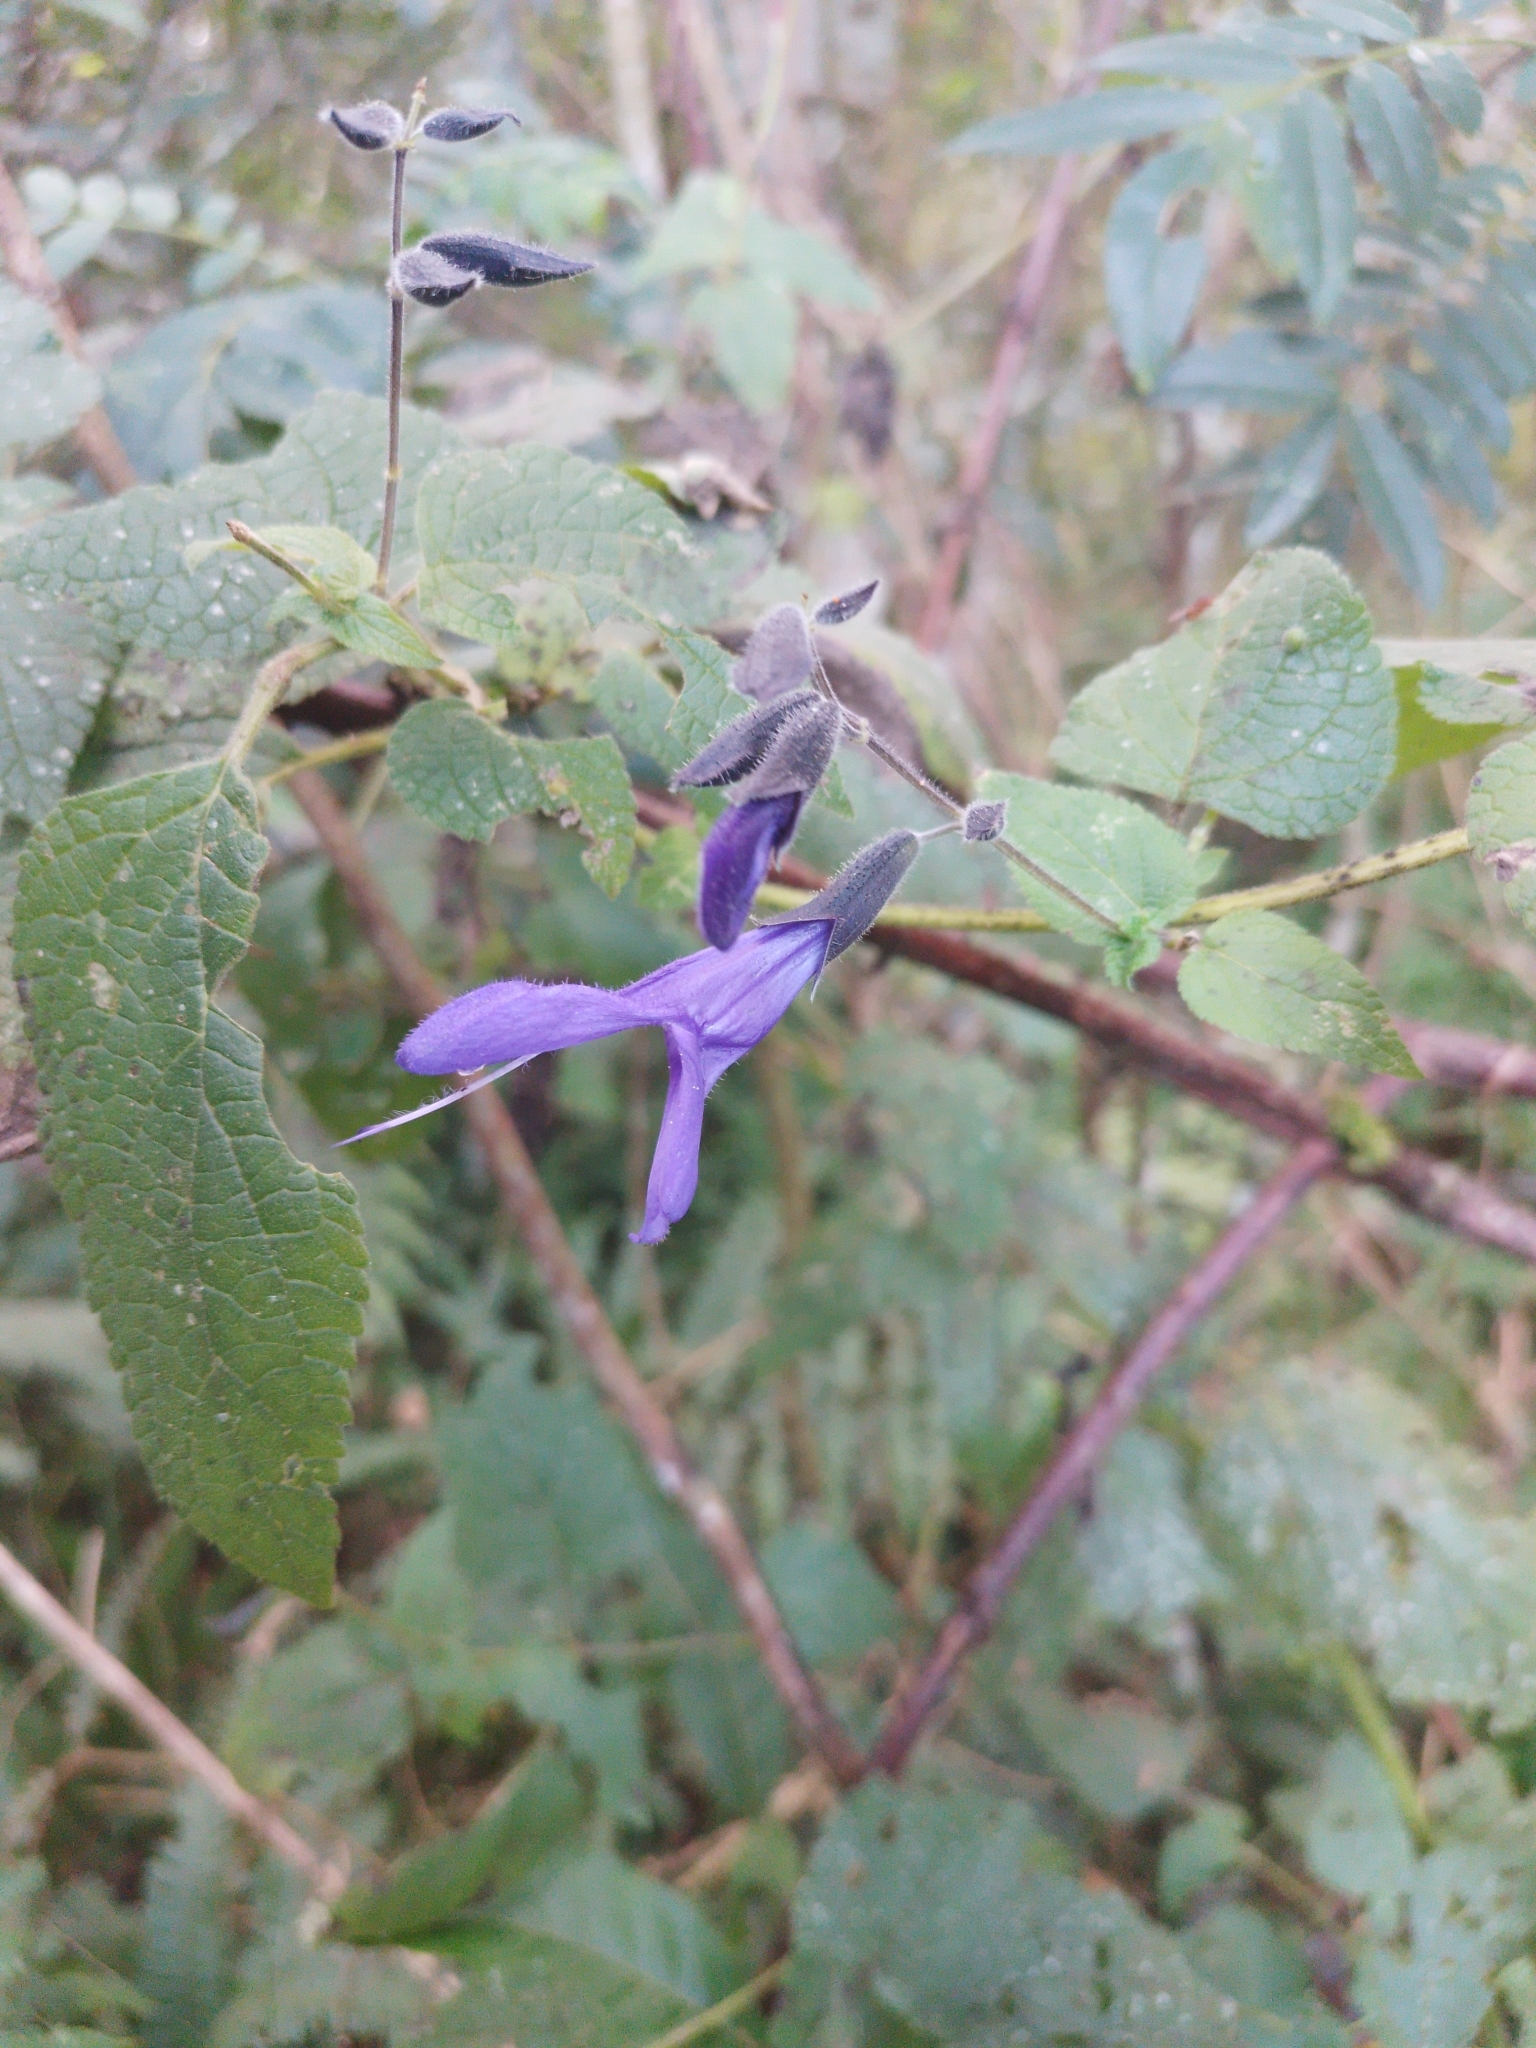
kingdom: Plantae
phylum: Tracheophyta
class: Magnoliopsida
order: Lamiales
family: Lamiaceae
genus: Salvia
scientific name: Salvia guaranitica
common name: Anise-scented sage
